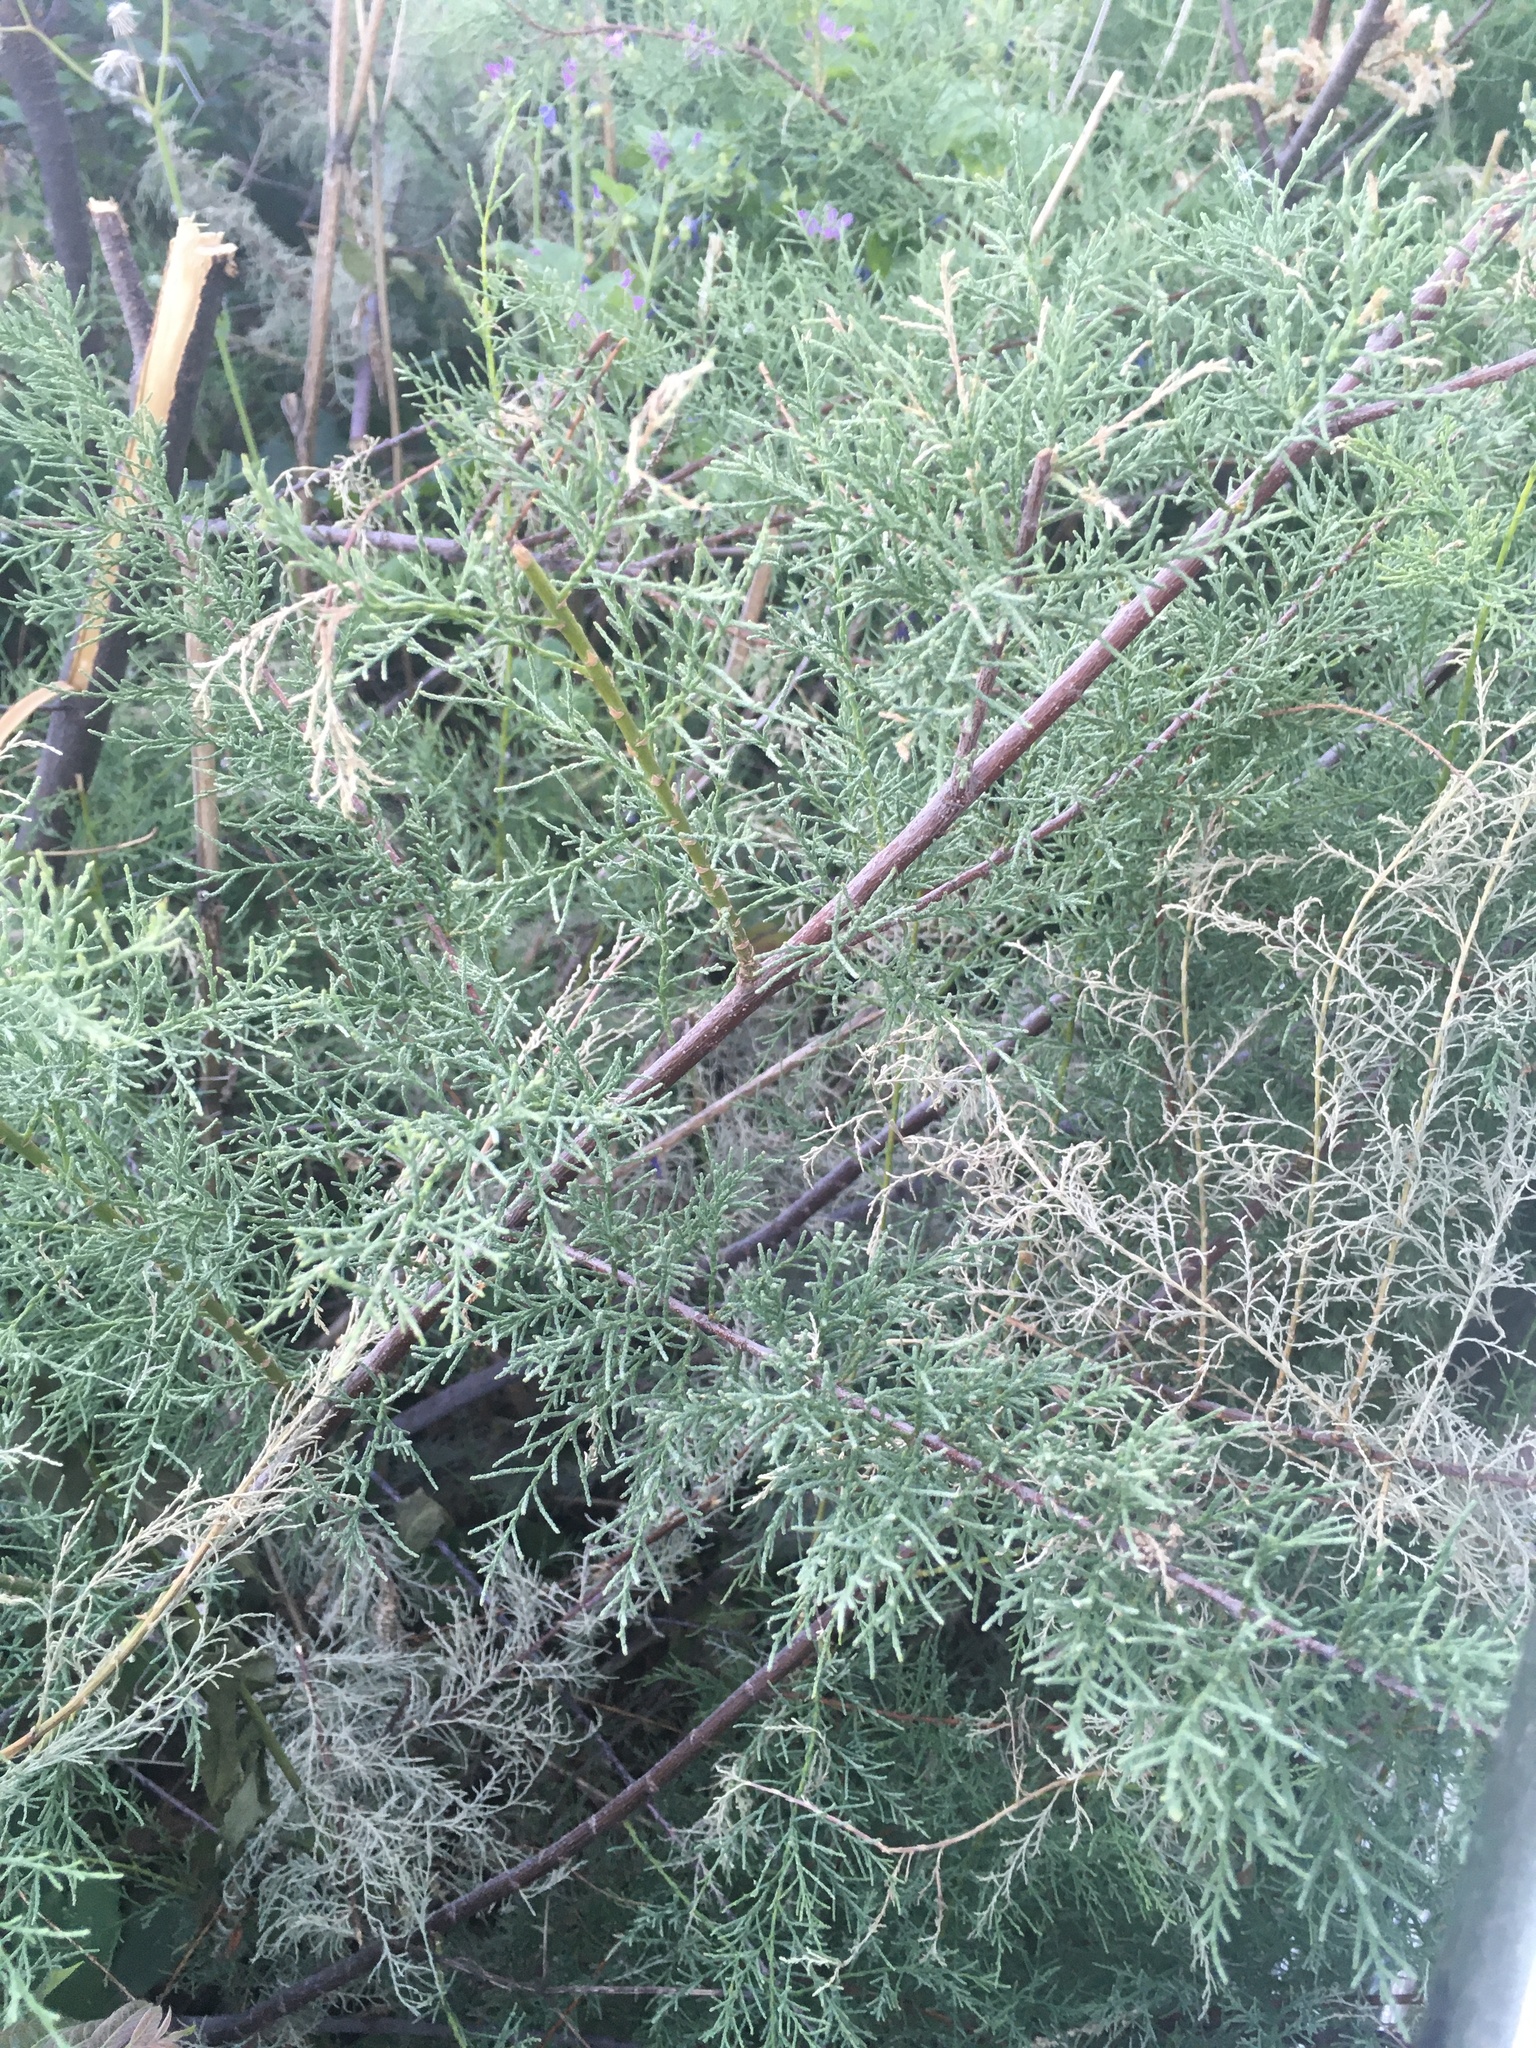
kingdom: Plantae
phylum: Tracheophyta
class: Magnoliopsida
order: Caryophyllales
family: Tamaricaceae
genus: Tamarix
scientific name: Tamarix ramosissima
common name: Pink tamarisk
